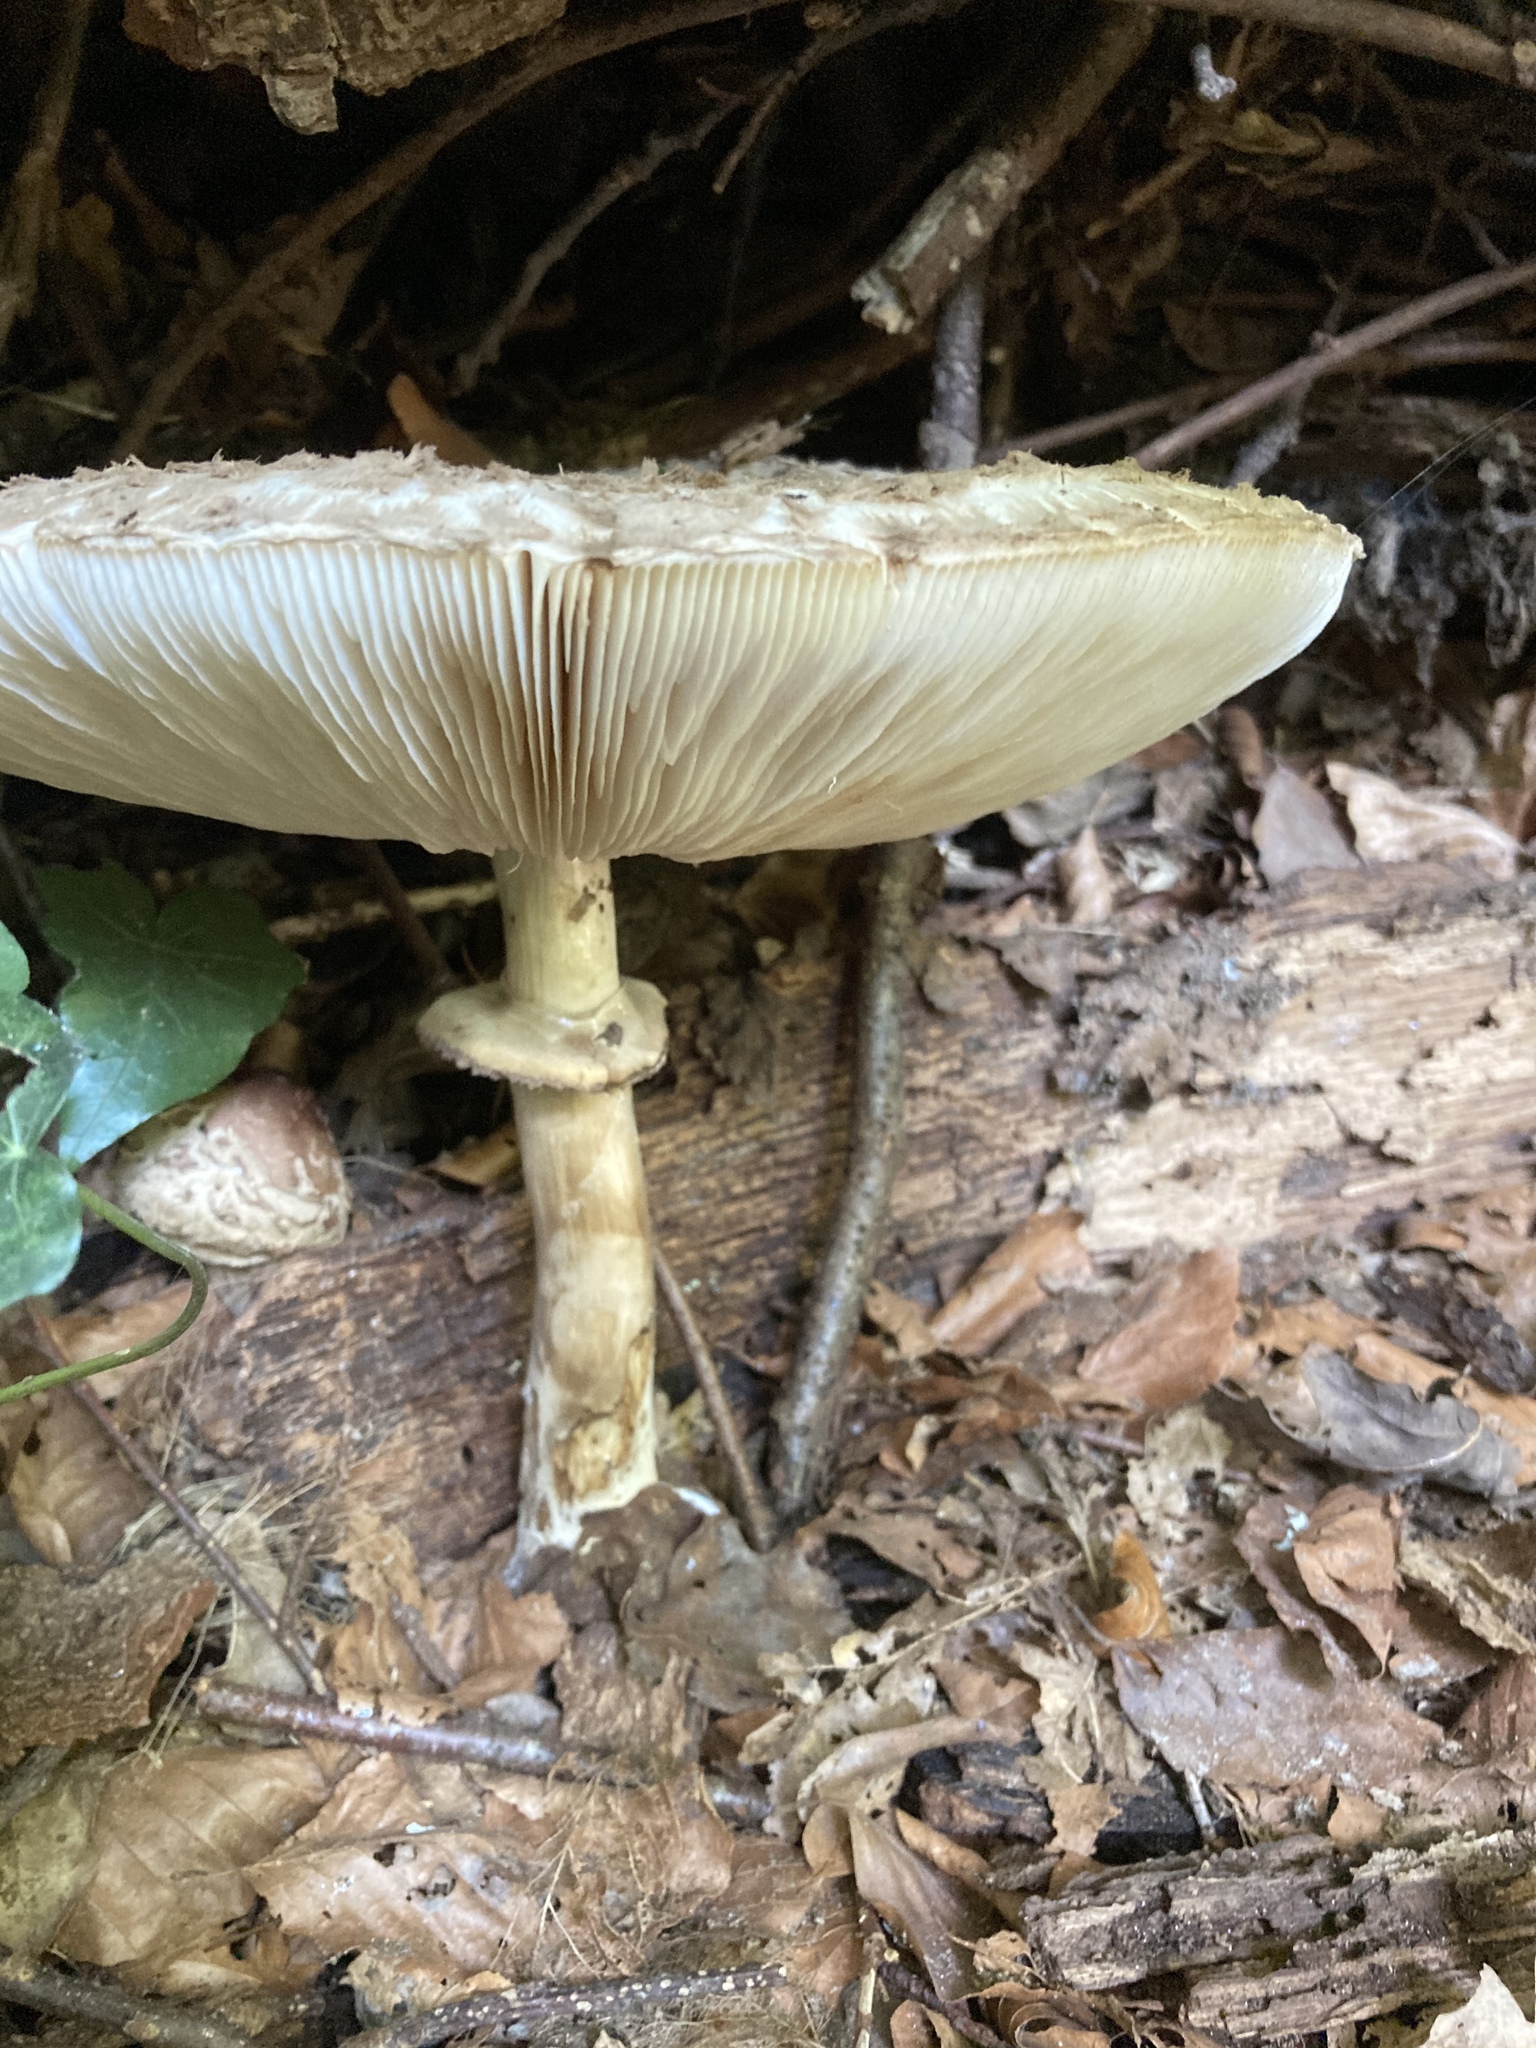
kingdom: Fungi
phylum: Basidiomycota
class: Agaricomycetes
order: Agaricales
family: Agaricaceae
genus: Macrolepiota
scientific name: Macrolepiota procera
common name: Parasol
